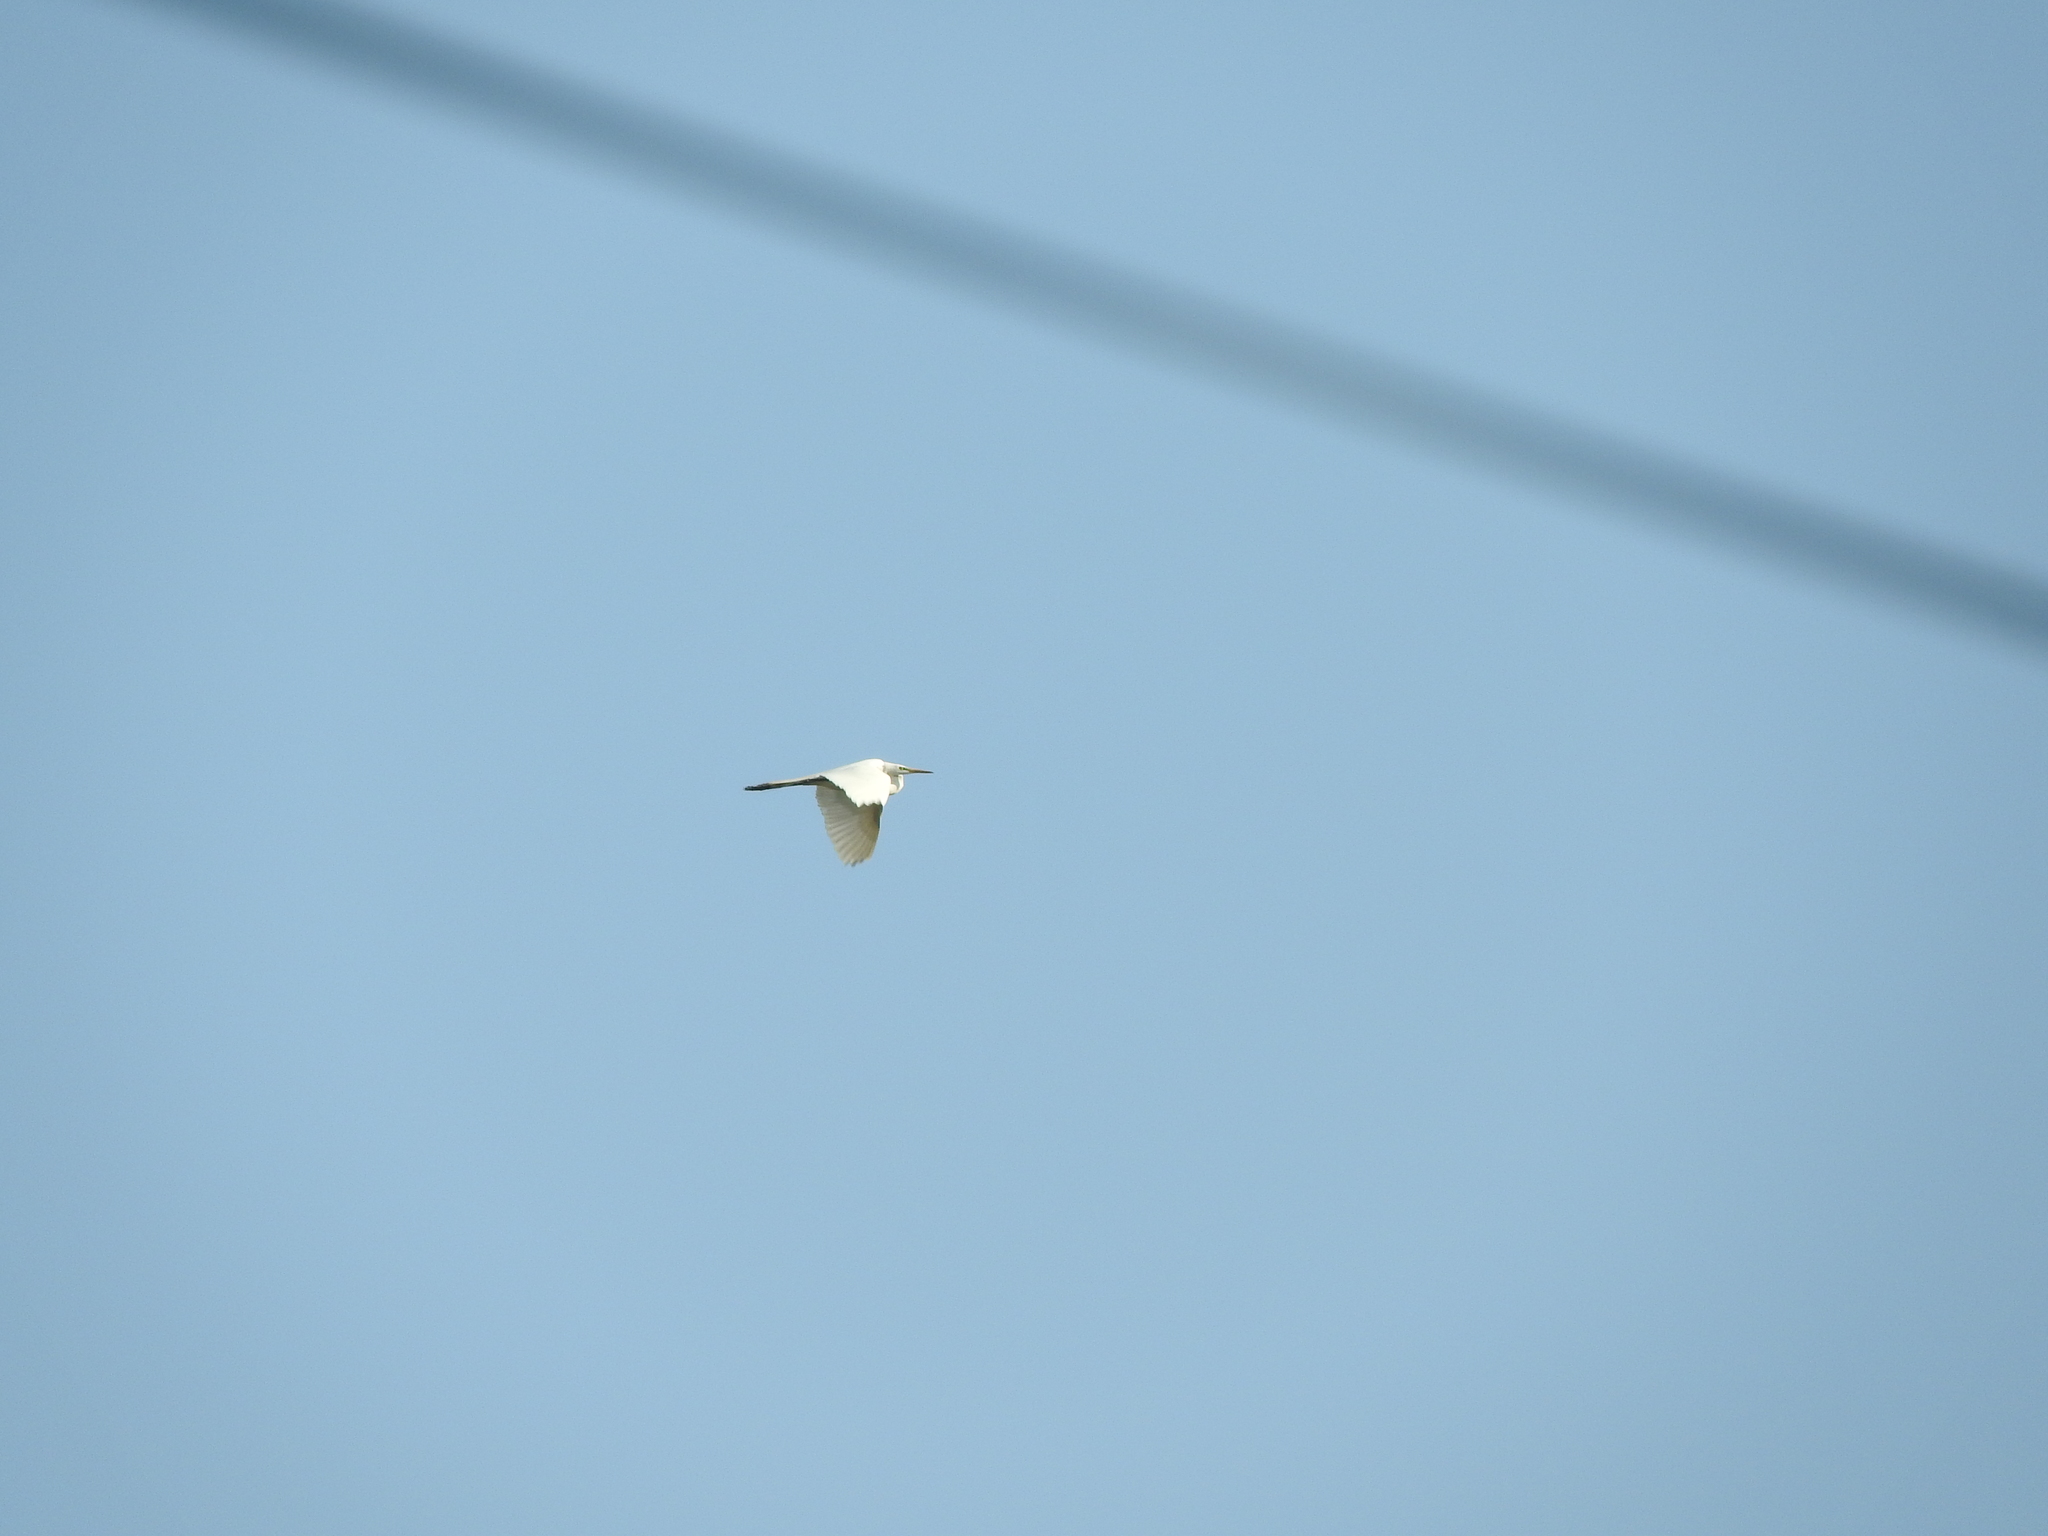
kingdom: Animalia
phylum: Chordata
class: Aves
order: Pelecaniformes
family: Ardeidae
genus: Ardea
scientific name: Ardea alba
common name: Great egret
